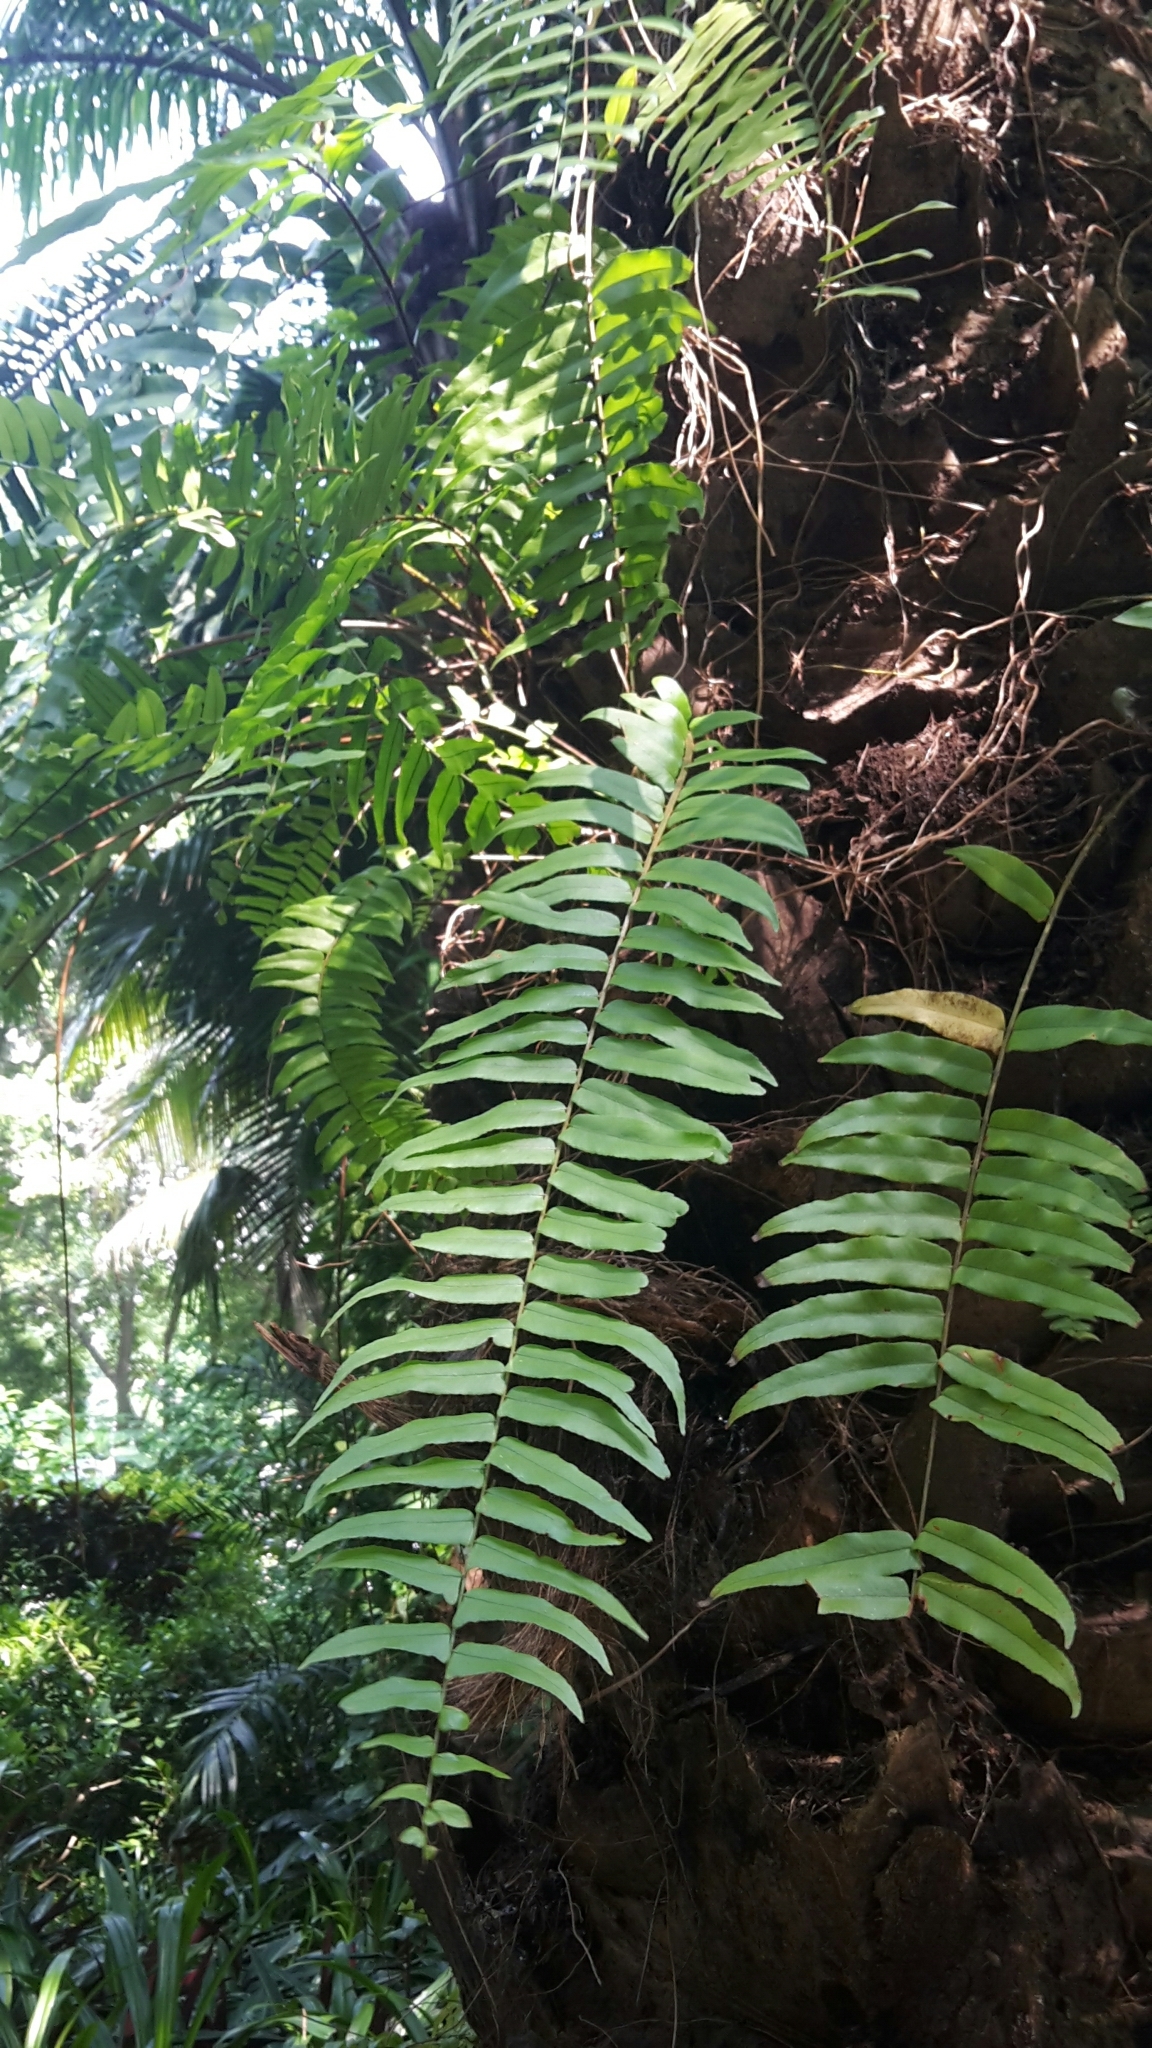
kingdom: Plantae
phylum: Tracheophyta
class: Polypodiopsida
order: Polypodiales
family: Nephrolepidaceae
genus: Nephrolepis
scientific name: Nephrolepis biserrata
